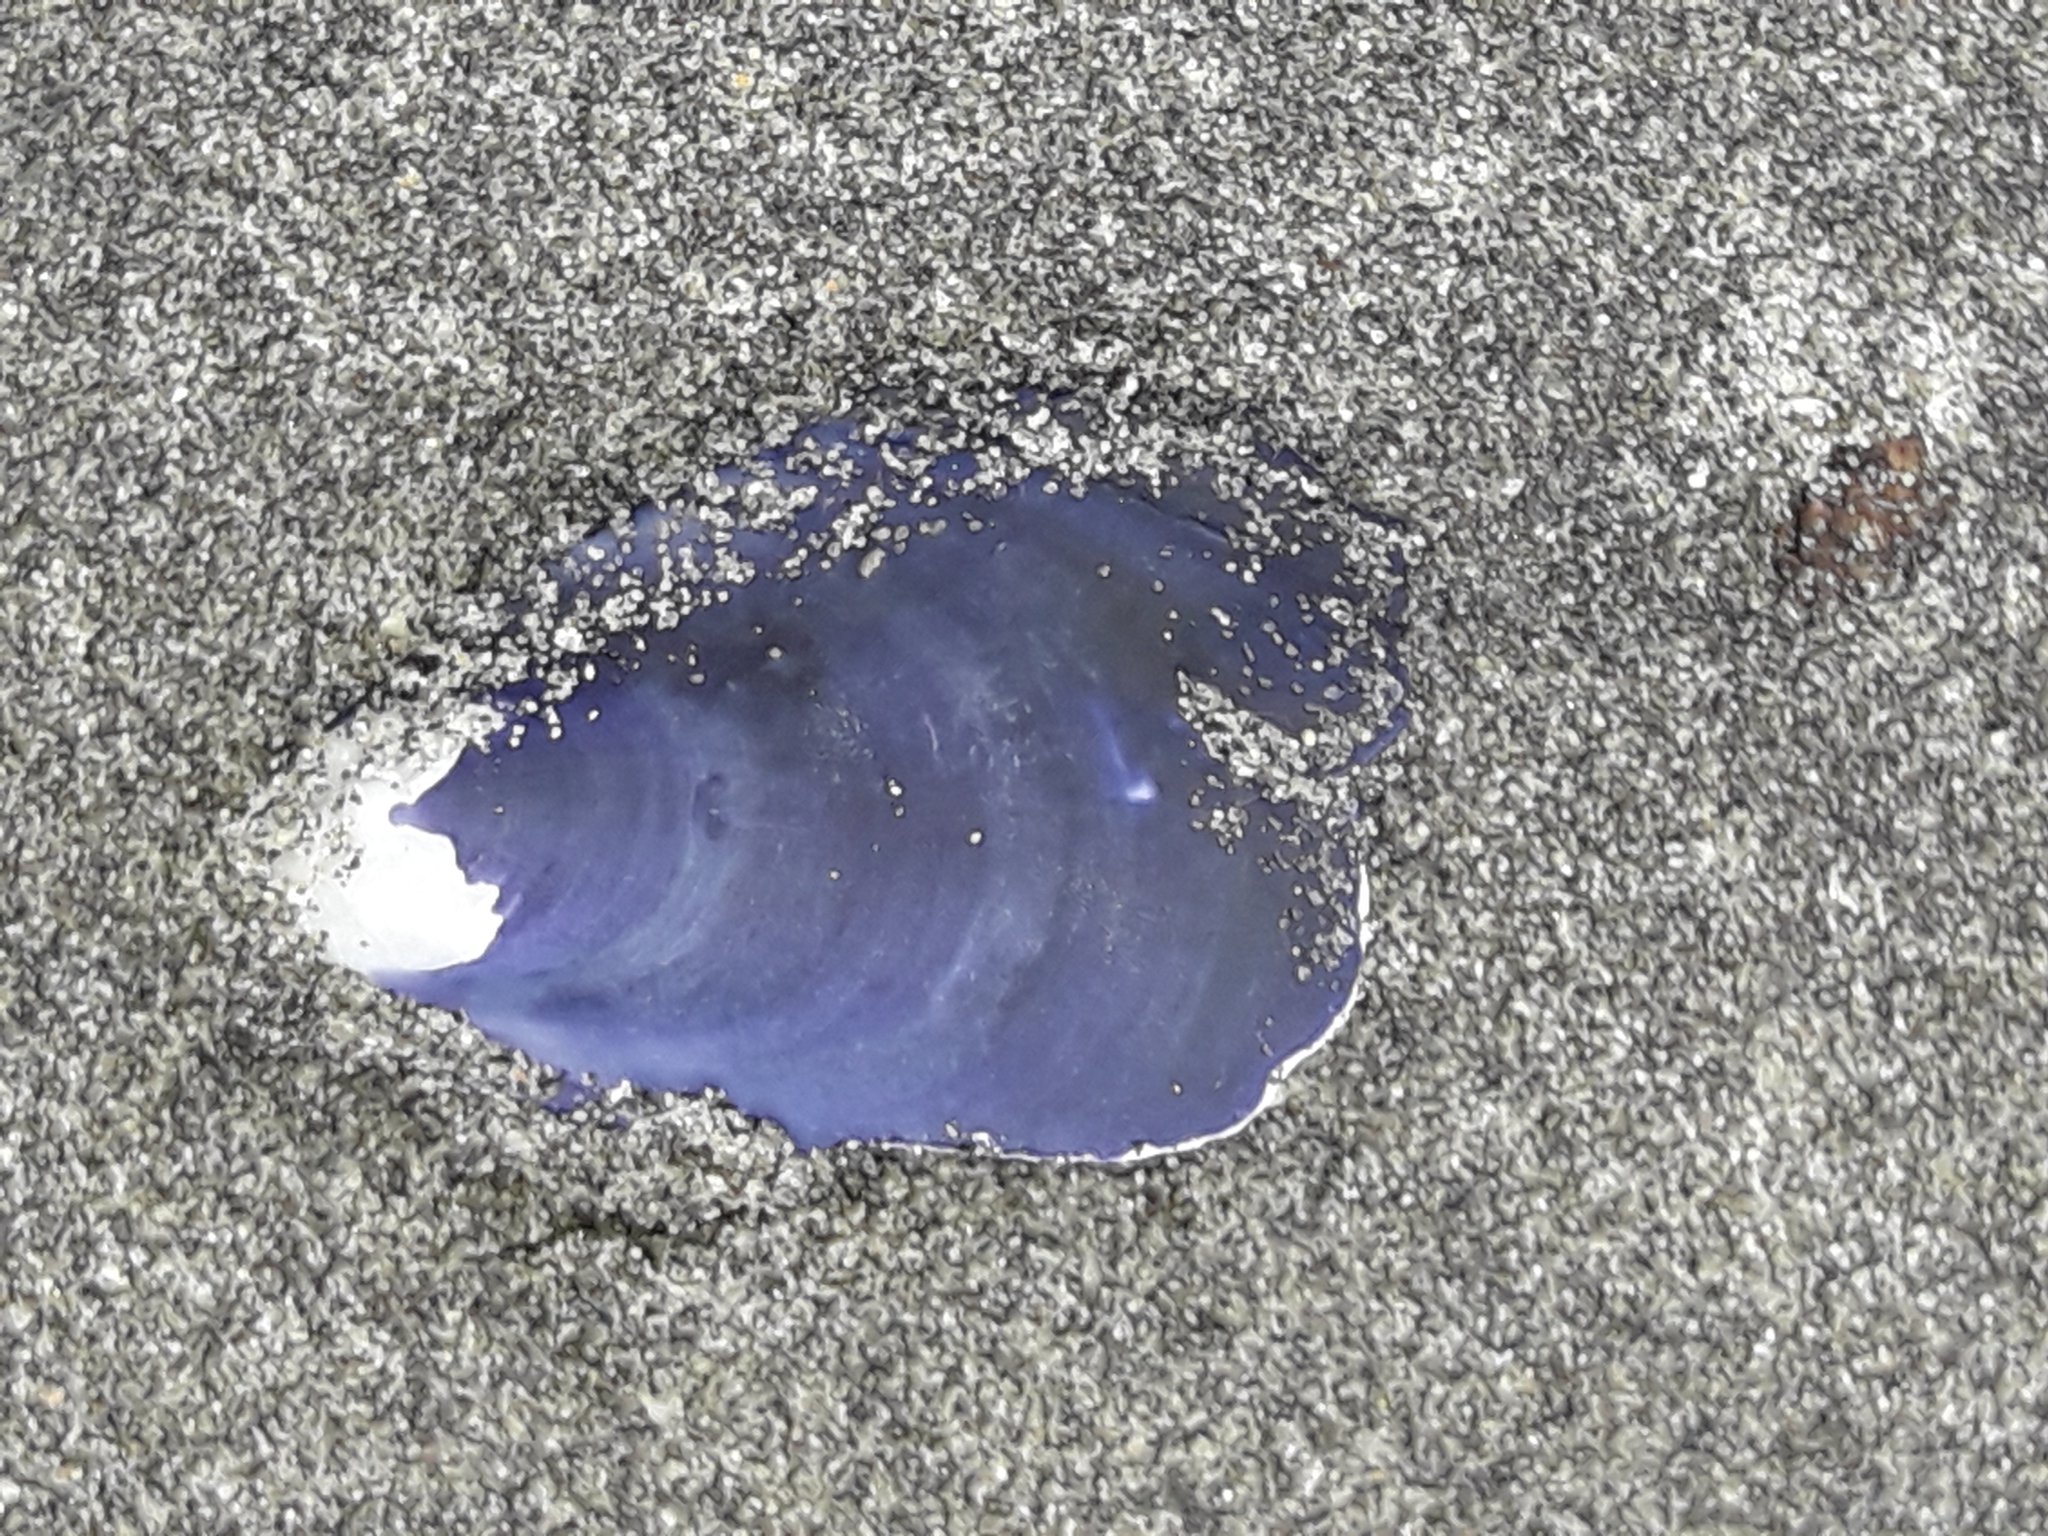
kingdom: Animalia
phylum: Mollusca
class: Bivalvia
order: Mytilida
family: Mytilidae
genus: Mytilus
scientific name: Mytilus planulatus
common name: Australian mussel
